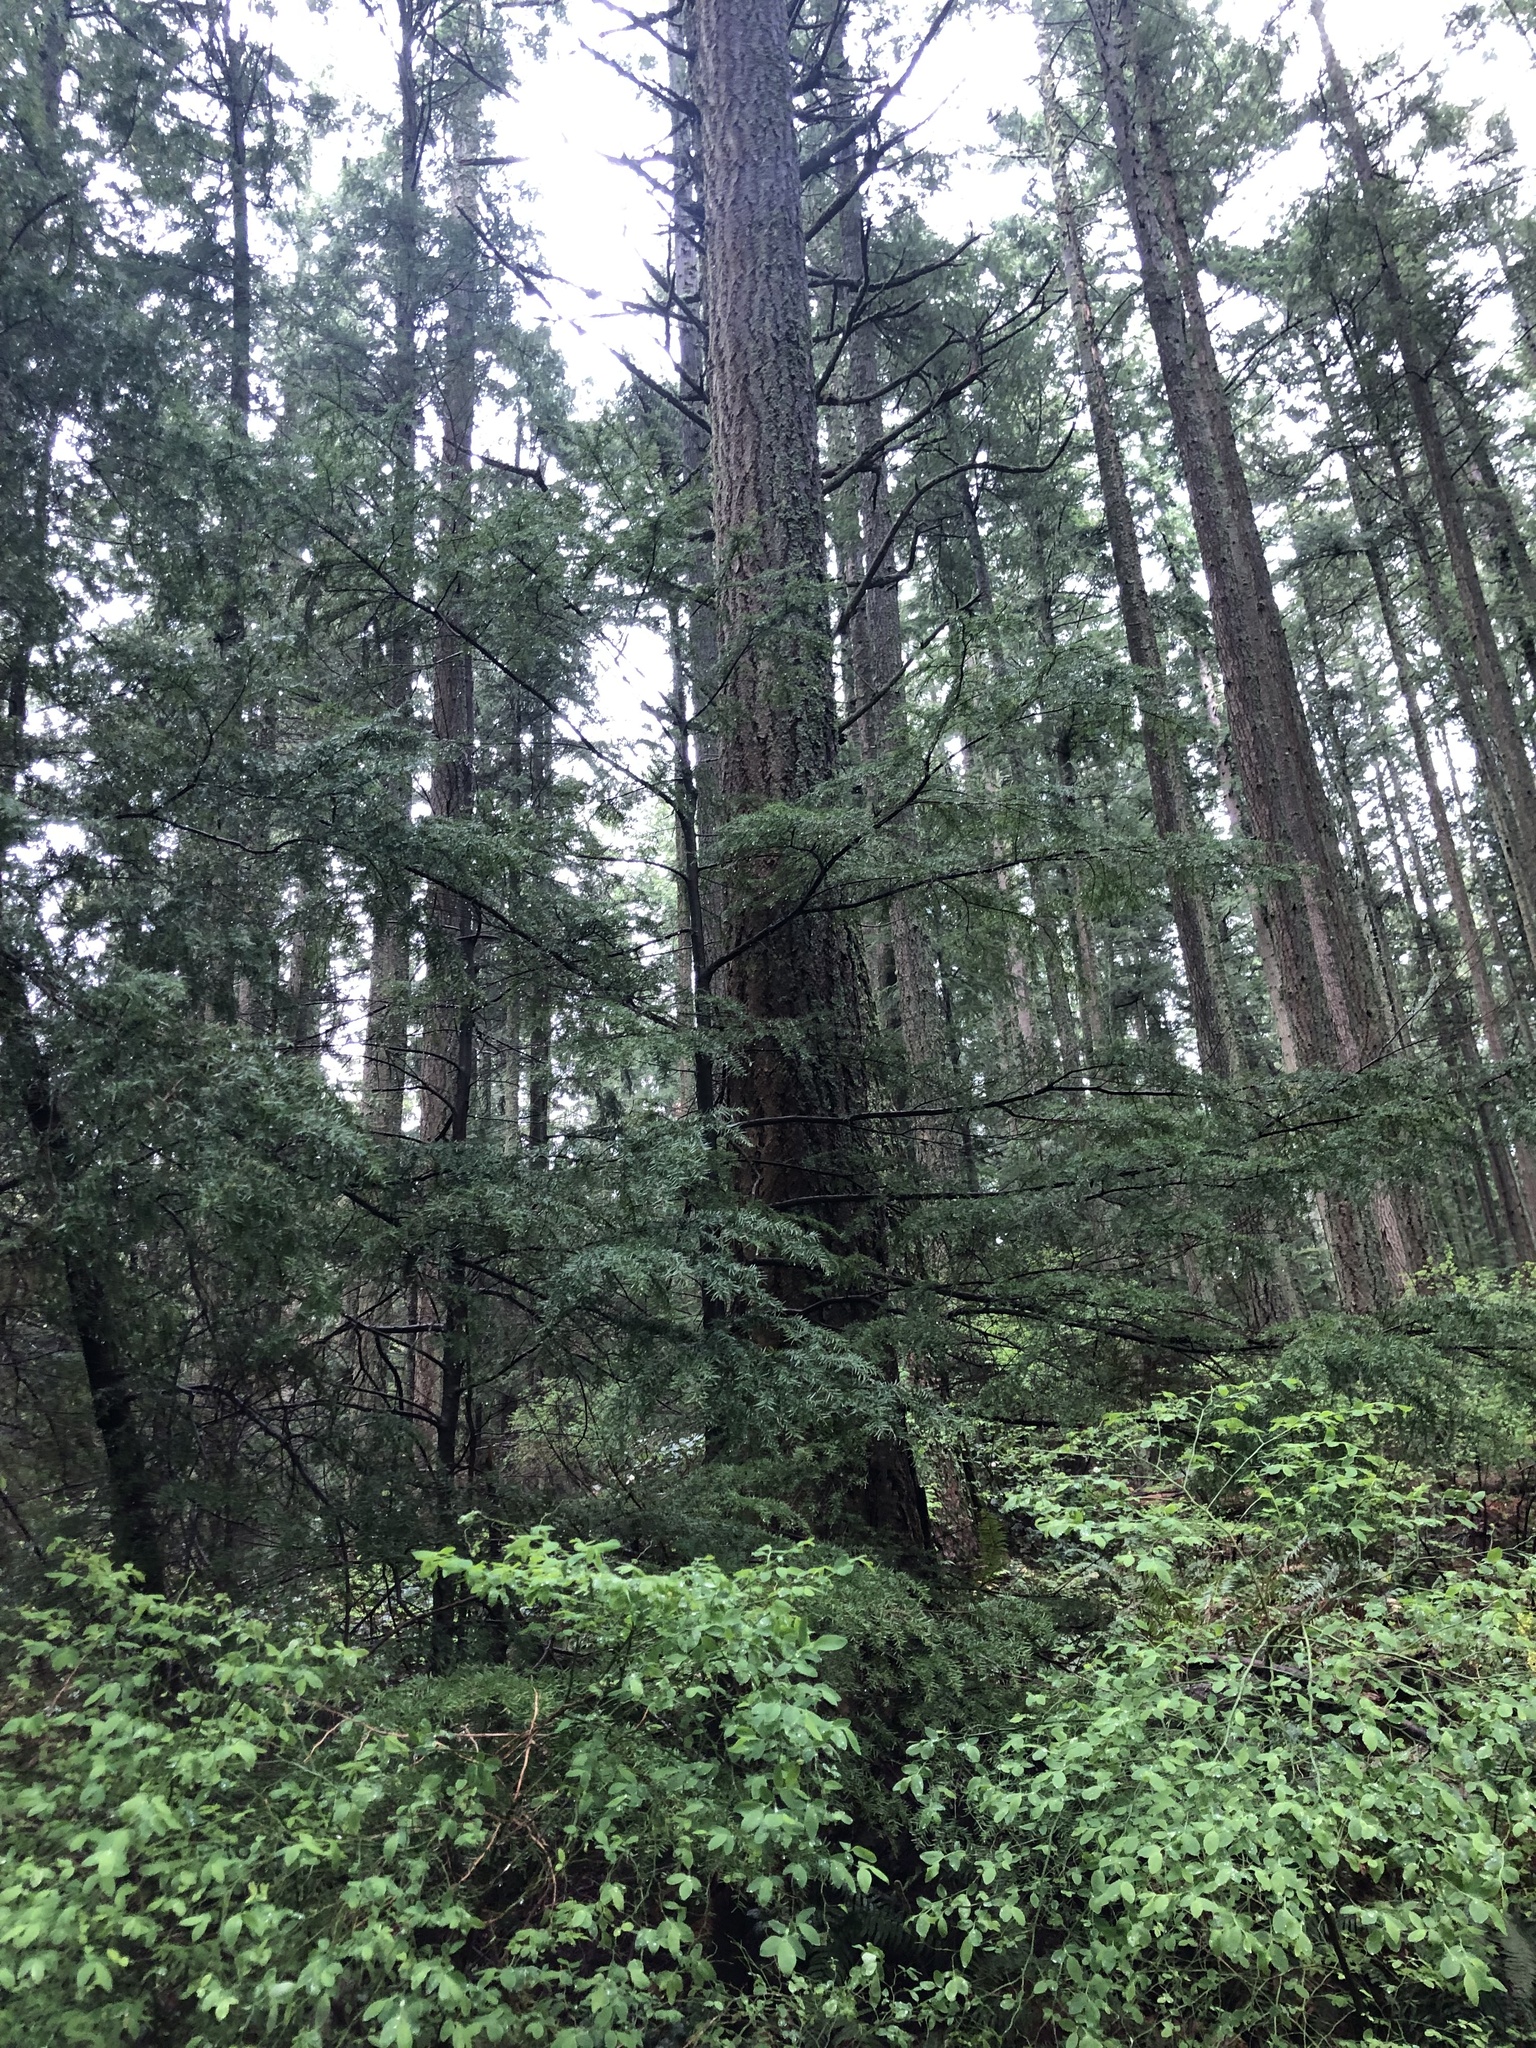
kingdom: Plantae
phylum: Tracheophyta
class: Pinopsida
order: Pinales
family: Pinaceae
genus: Tsuga
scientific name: Tsuga heterophylla
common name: Western hemlock
